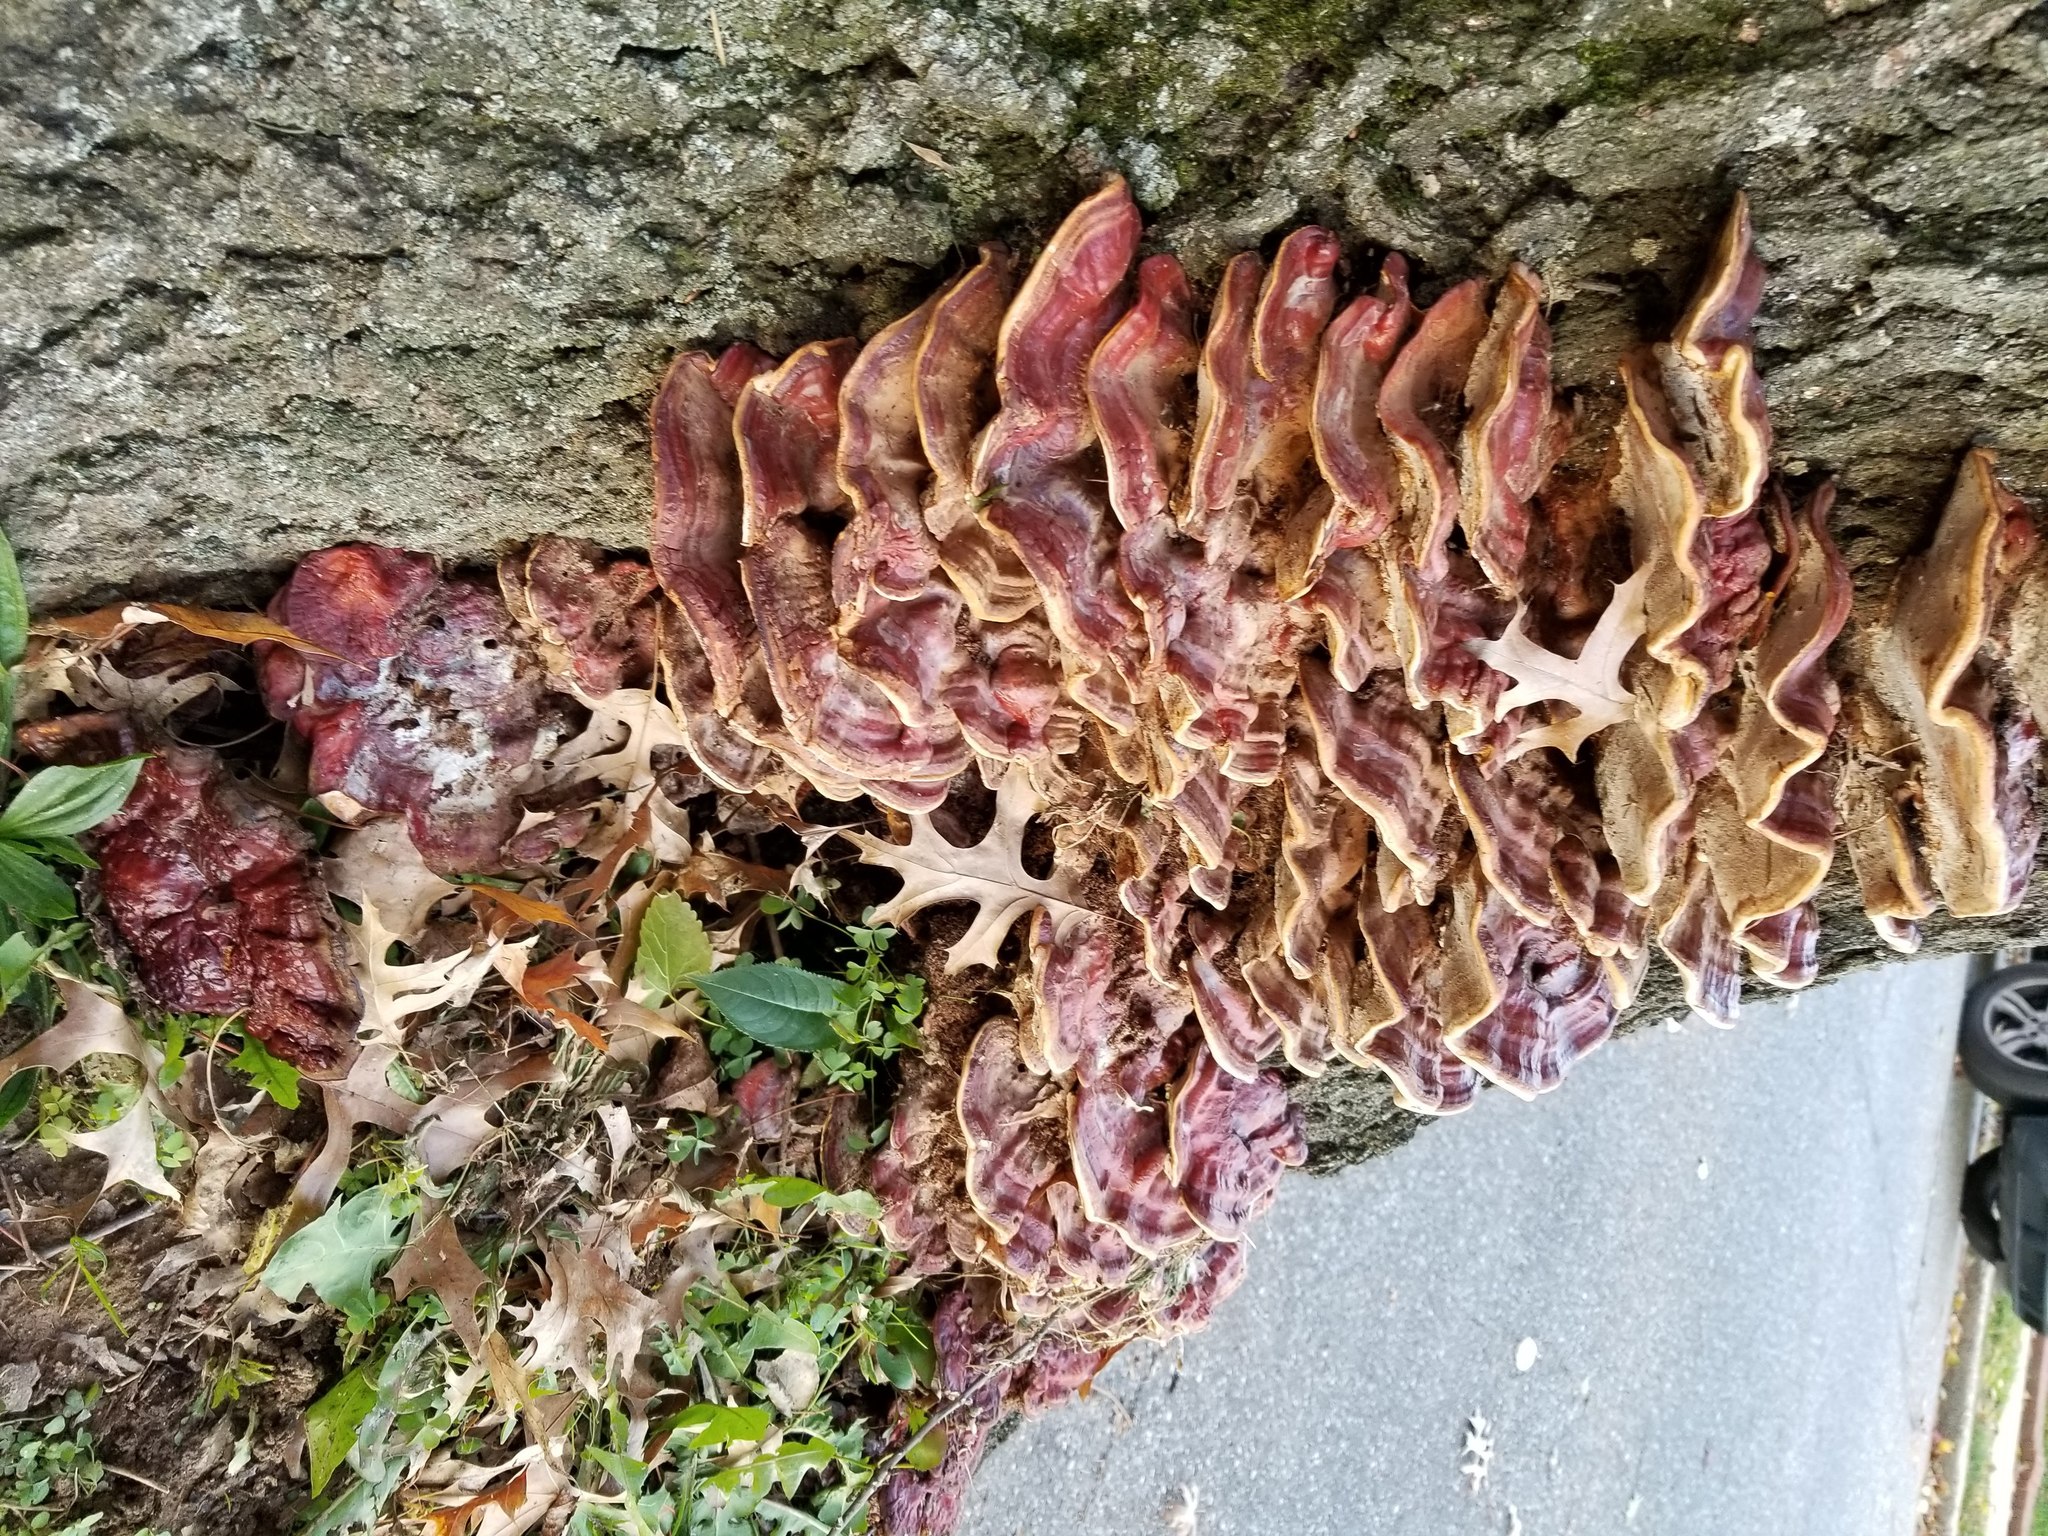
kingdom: Fungi
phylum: Basidiomycota
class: Agaricomycetes
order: Polyporales
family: Polyporaceae
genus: Ganoderma
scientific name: Ganoderma resinaceum
